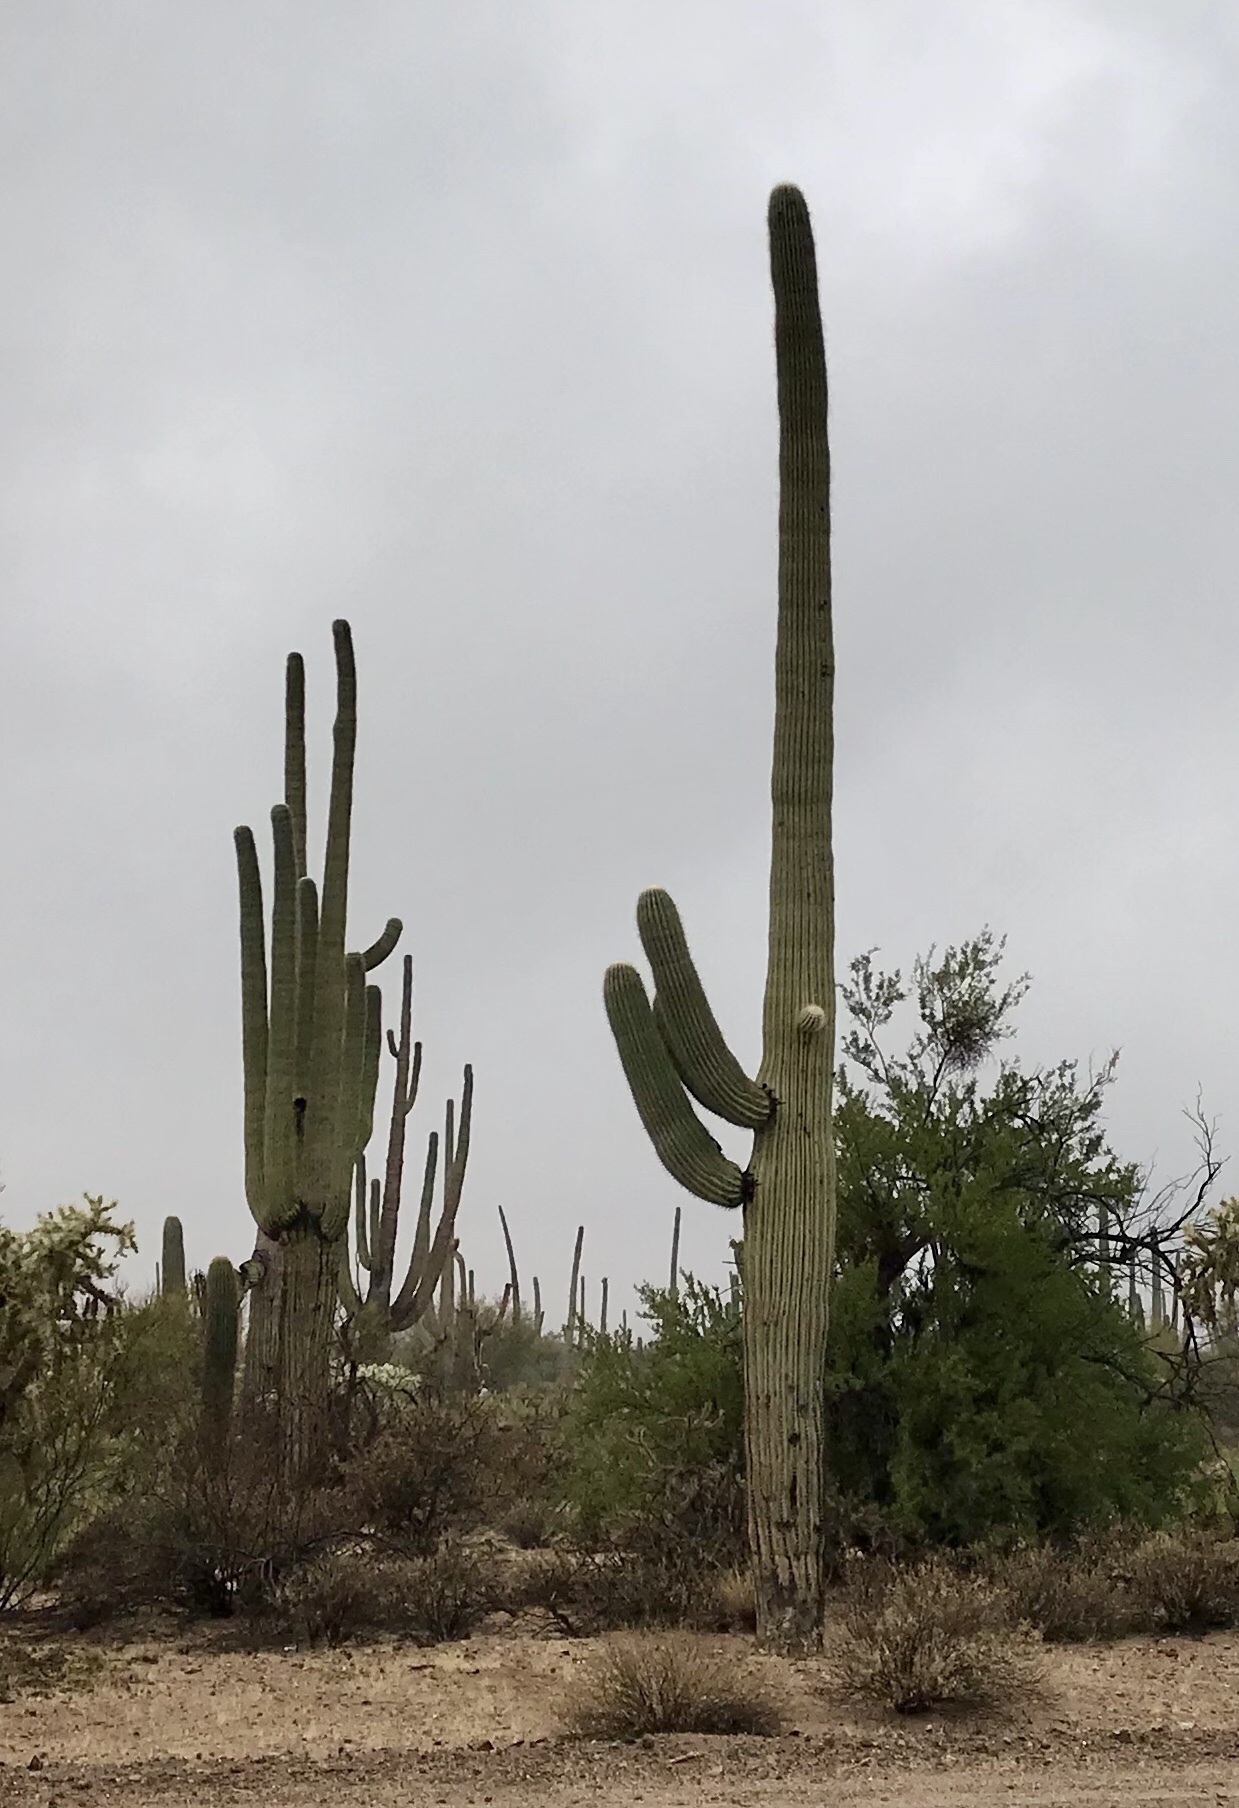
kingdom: Plantae
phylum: Tracheophyta
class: Magnoliopsida
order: Caryophyllales
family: Cactaceae
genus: Carnegiea
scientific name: Carnegiea gigantea
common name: Saguaro
